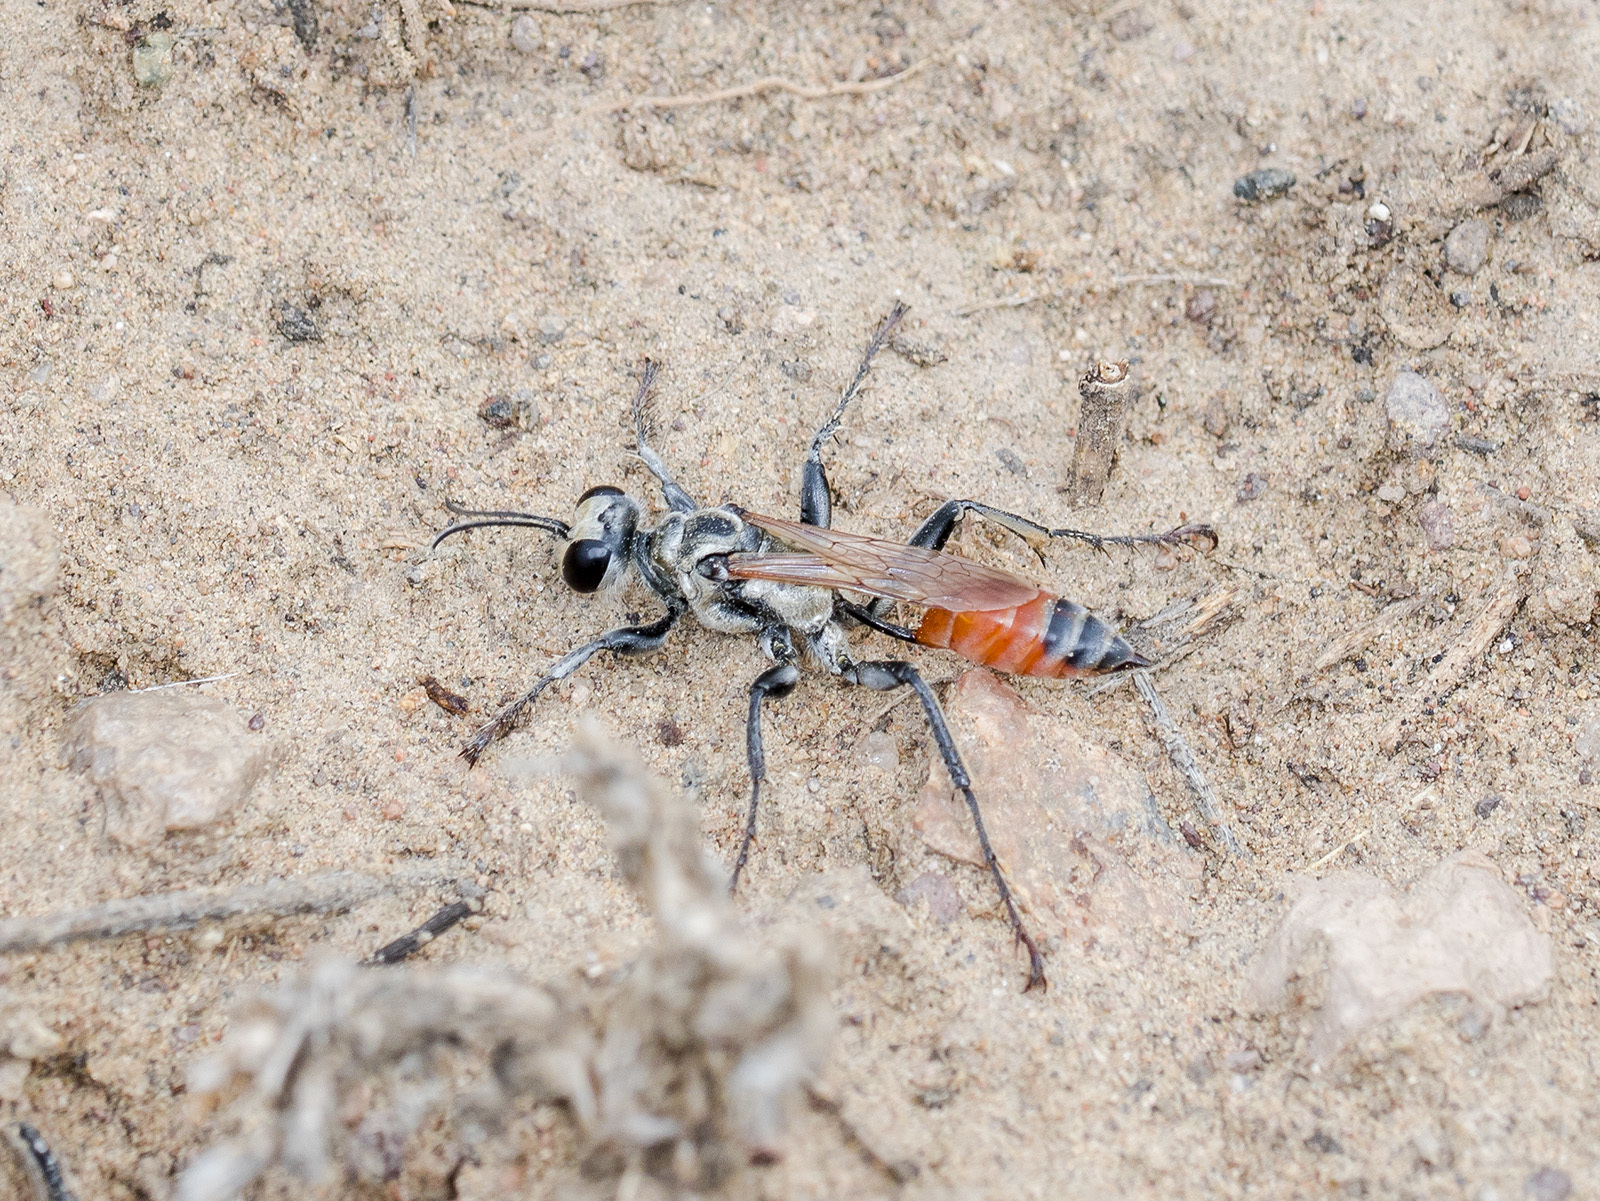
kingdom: Animalia
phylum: Arthropoda
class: Insecta
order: Hymenoptera
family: Sphecidae
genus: Prionyx
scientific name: Prionyx viduatus
